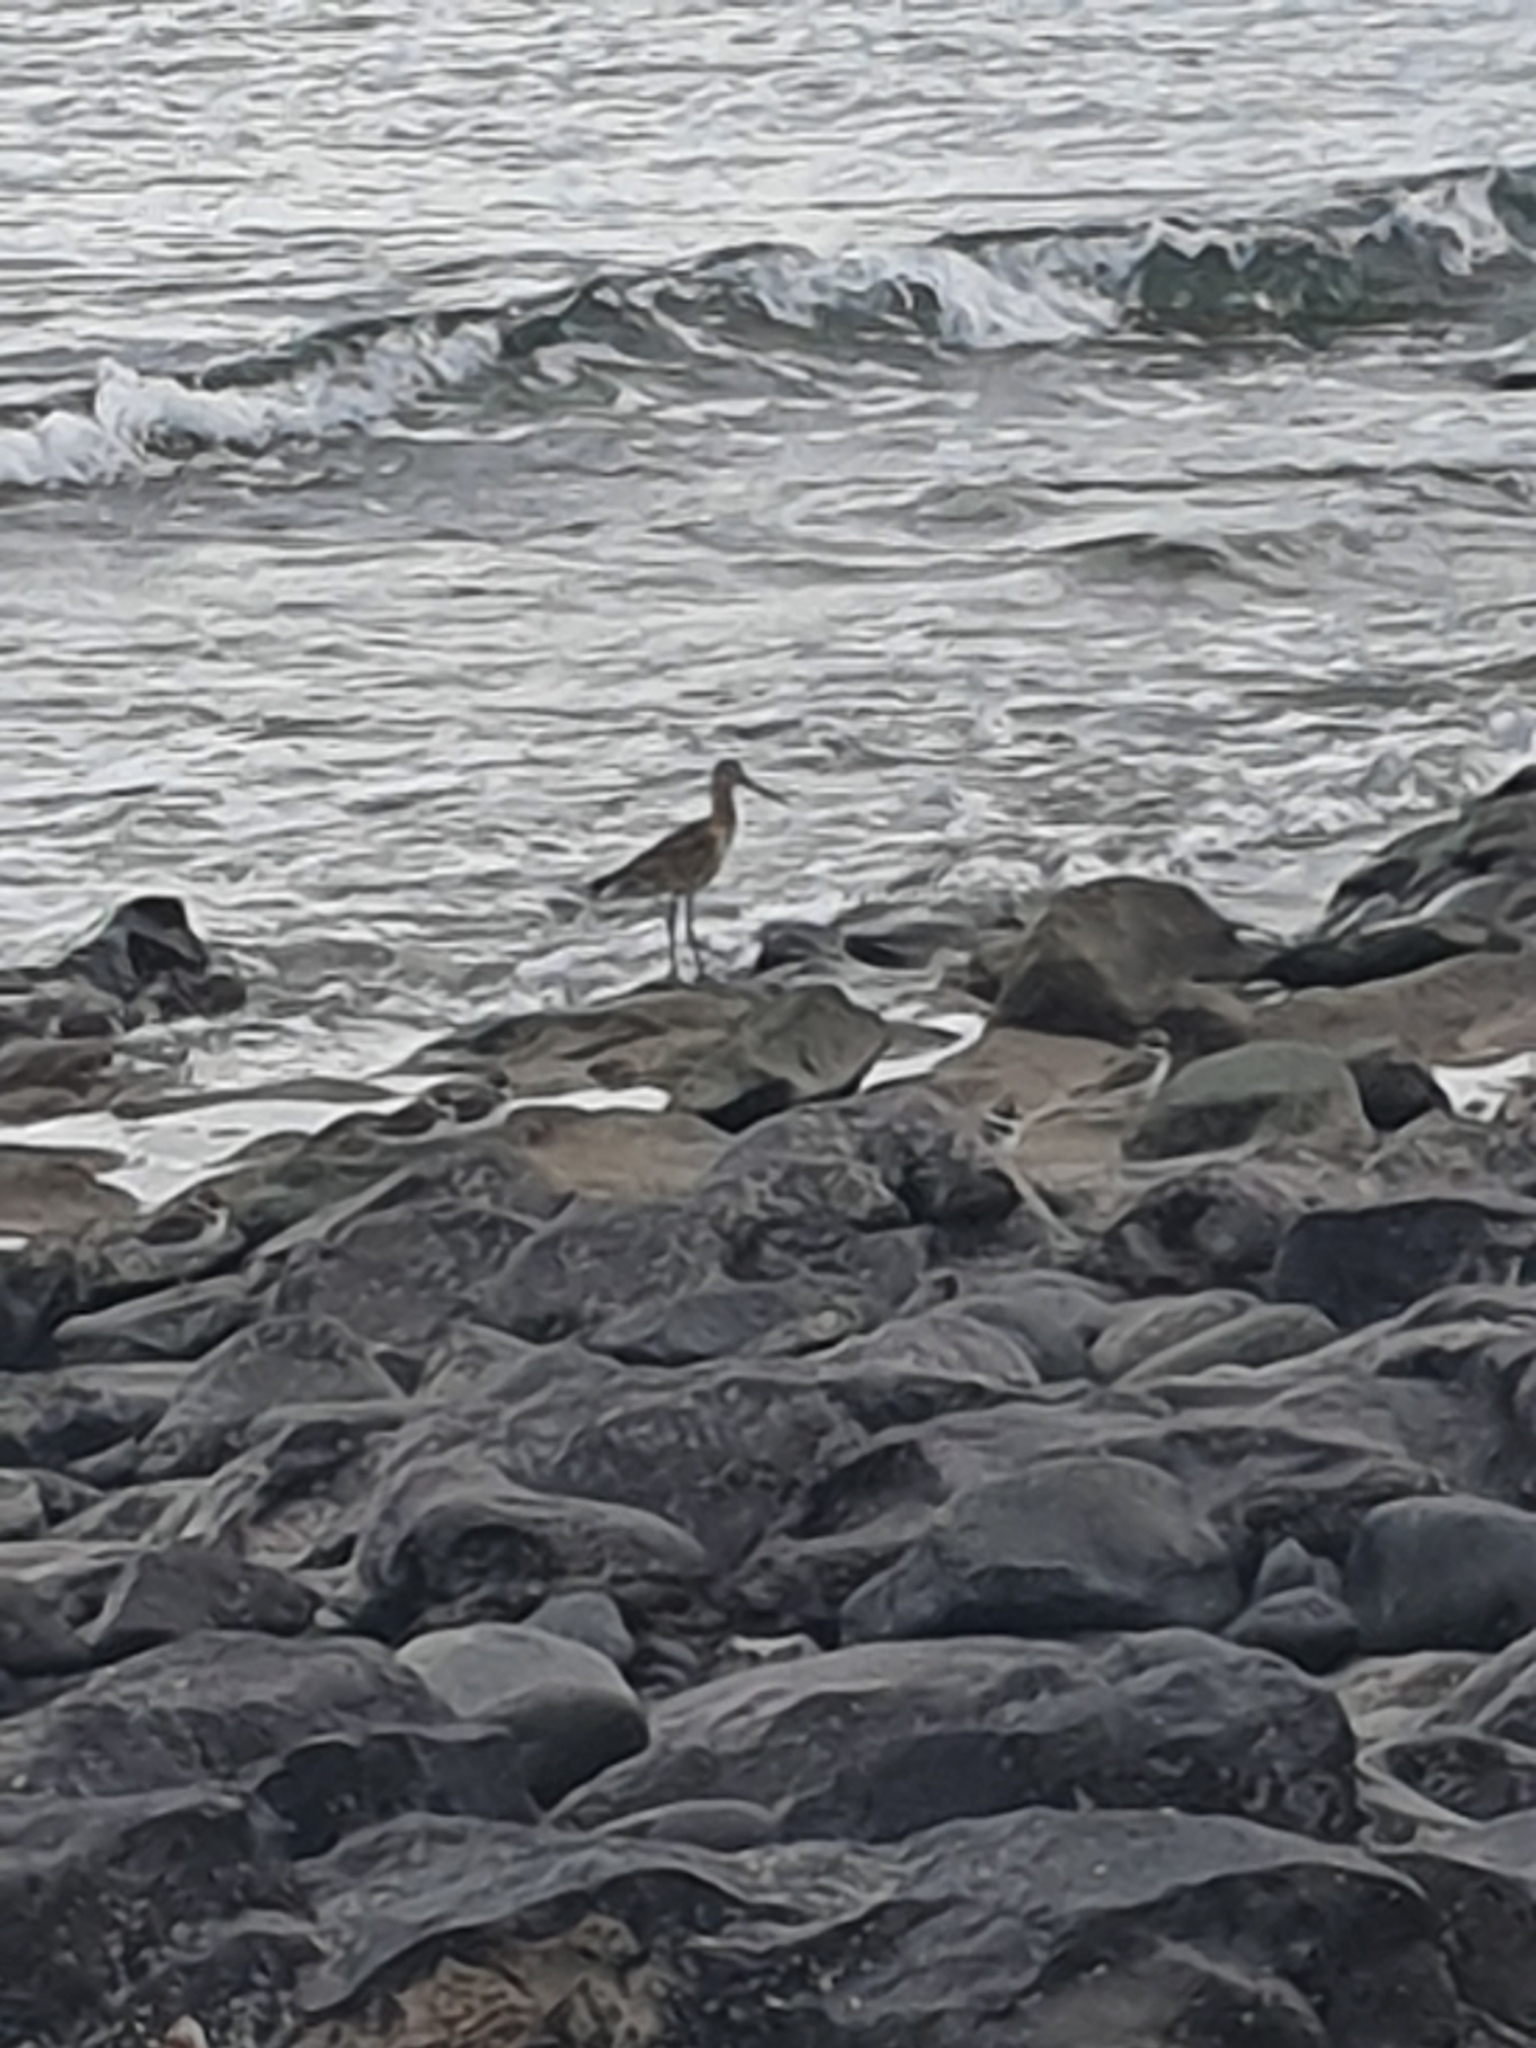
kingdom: Animalia
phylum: Chordata
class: Aves
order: Charadriiformes
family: Scolopacidae
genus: Limosa
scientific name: Limosa limosa
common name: Black-tailed godwit
